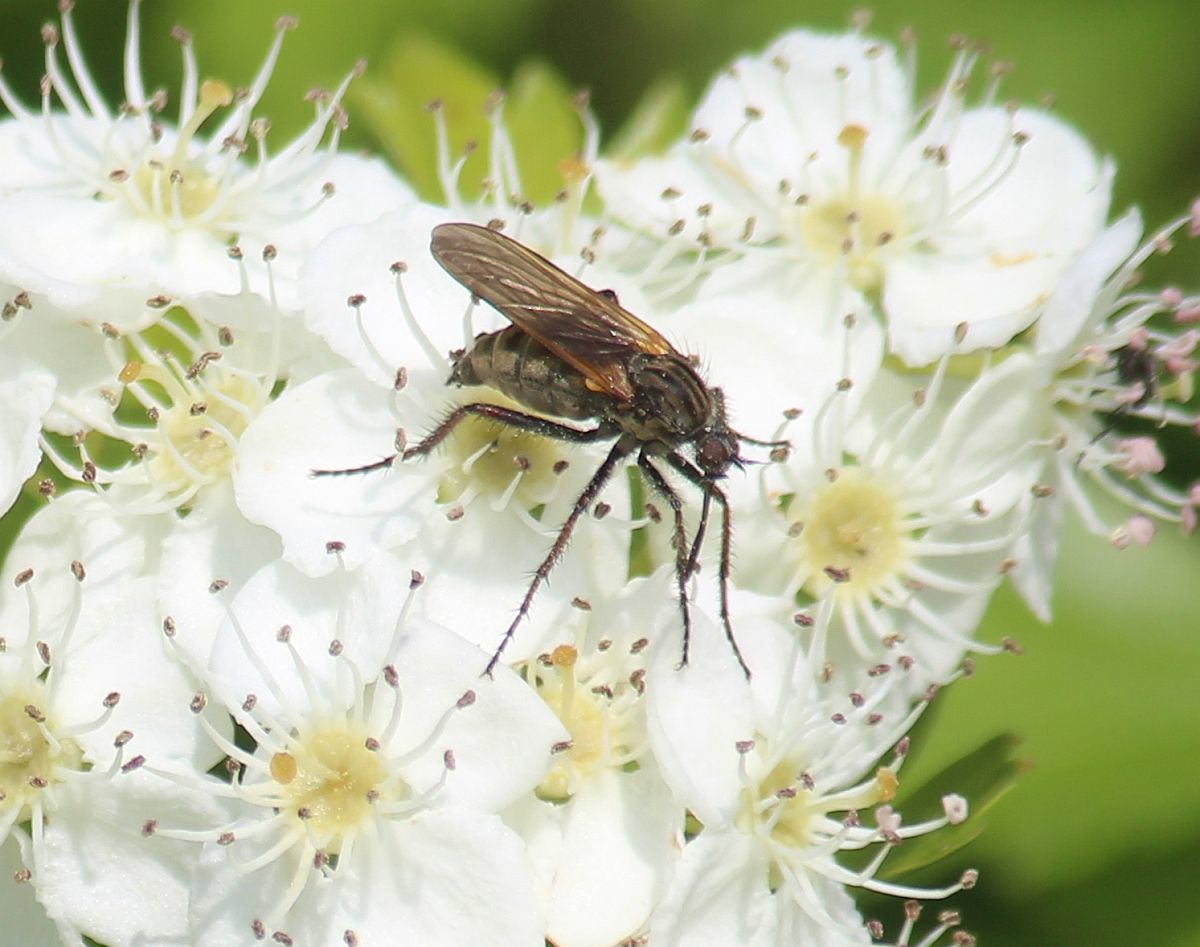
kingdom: Animalia
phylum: Arthropoda
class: Insecta
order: Diptera
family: Empididae
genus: Empis
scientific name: Empis tessellata
